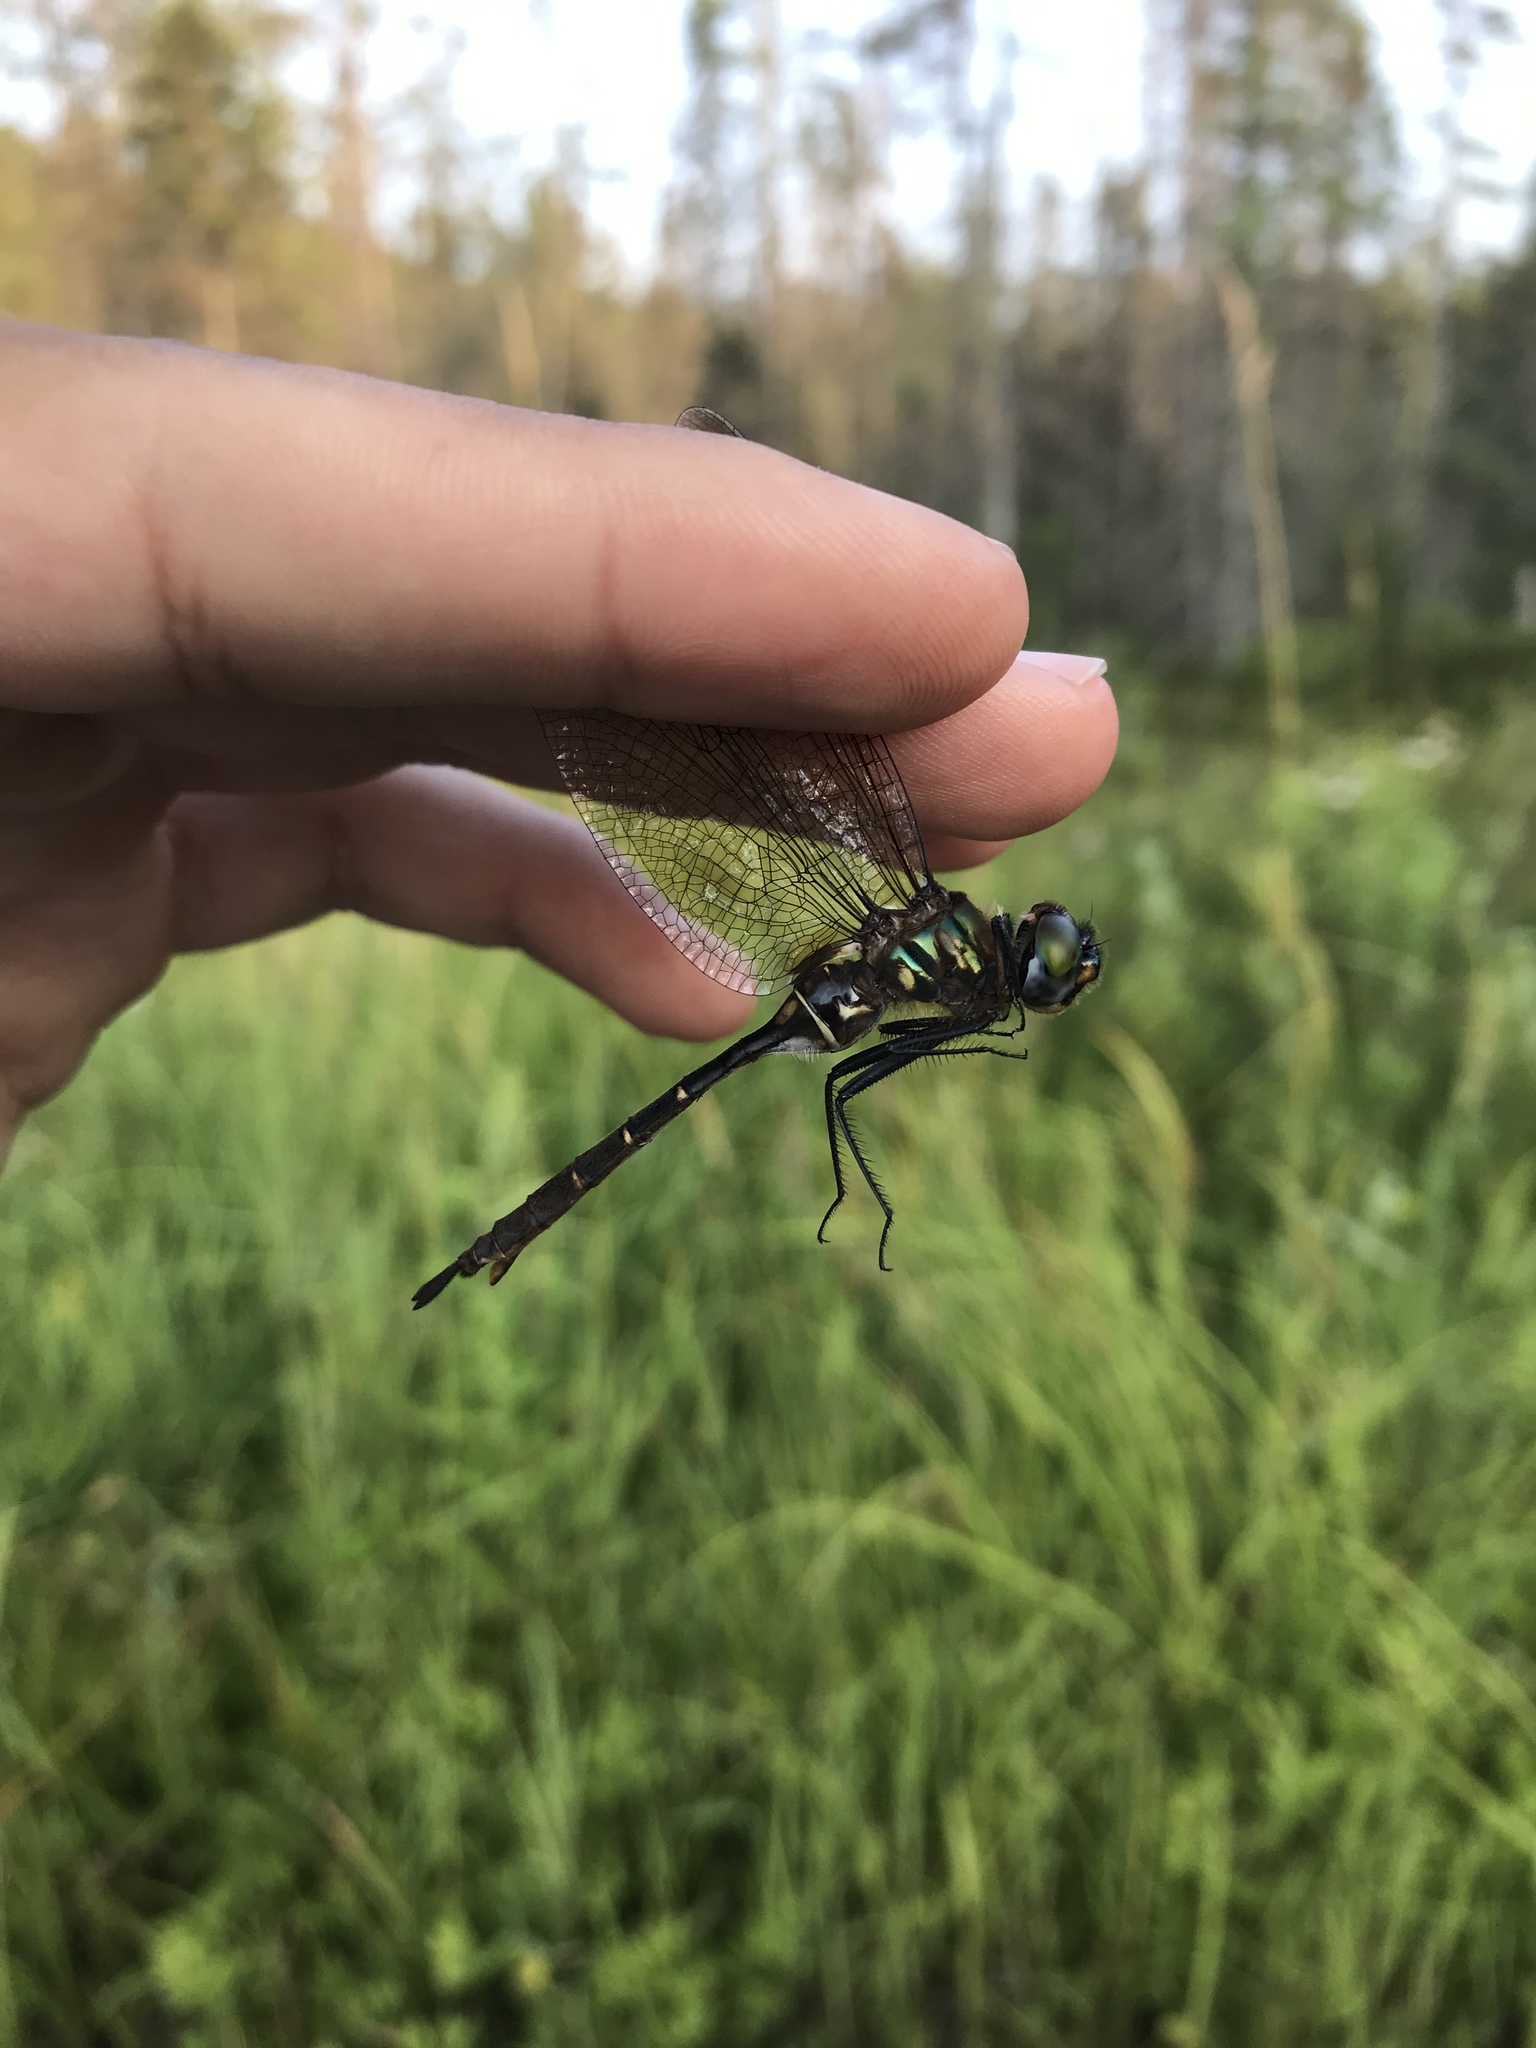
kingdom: Animalia
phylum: Arthropoda
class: Insecta
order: Odonata
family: Corduliidae
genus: Somatochlora
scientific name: Somatochlora walshii
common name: Brush-tipped emerald
